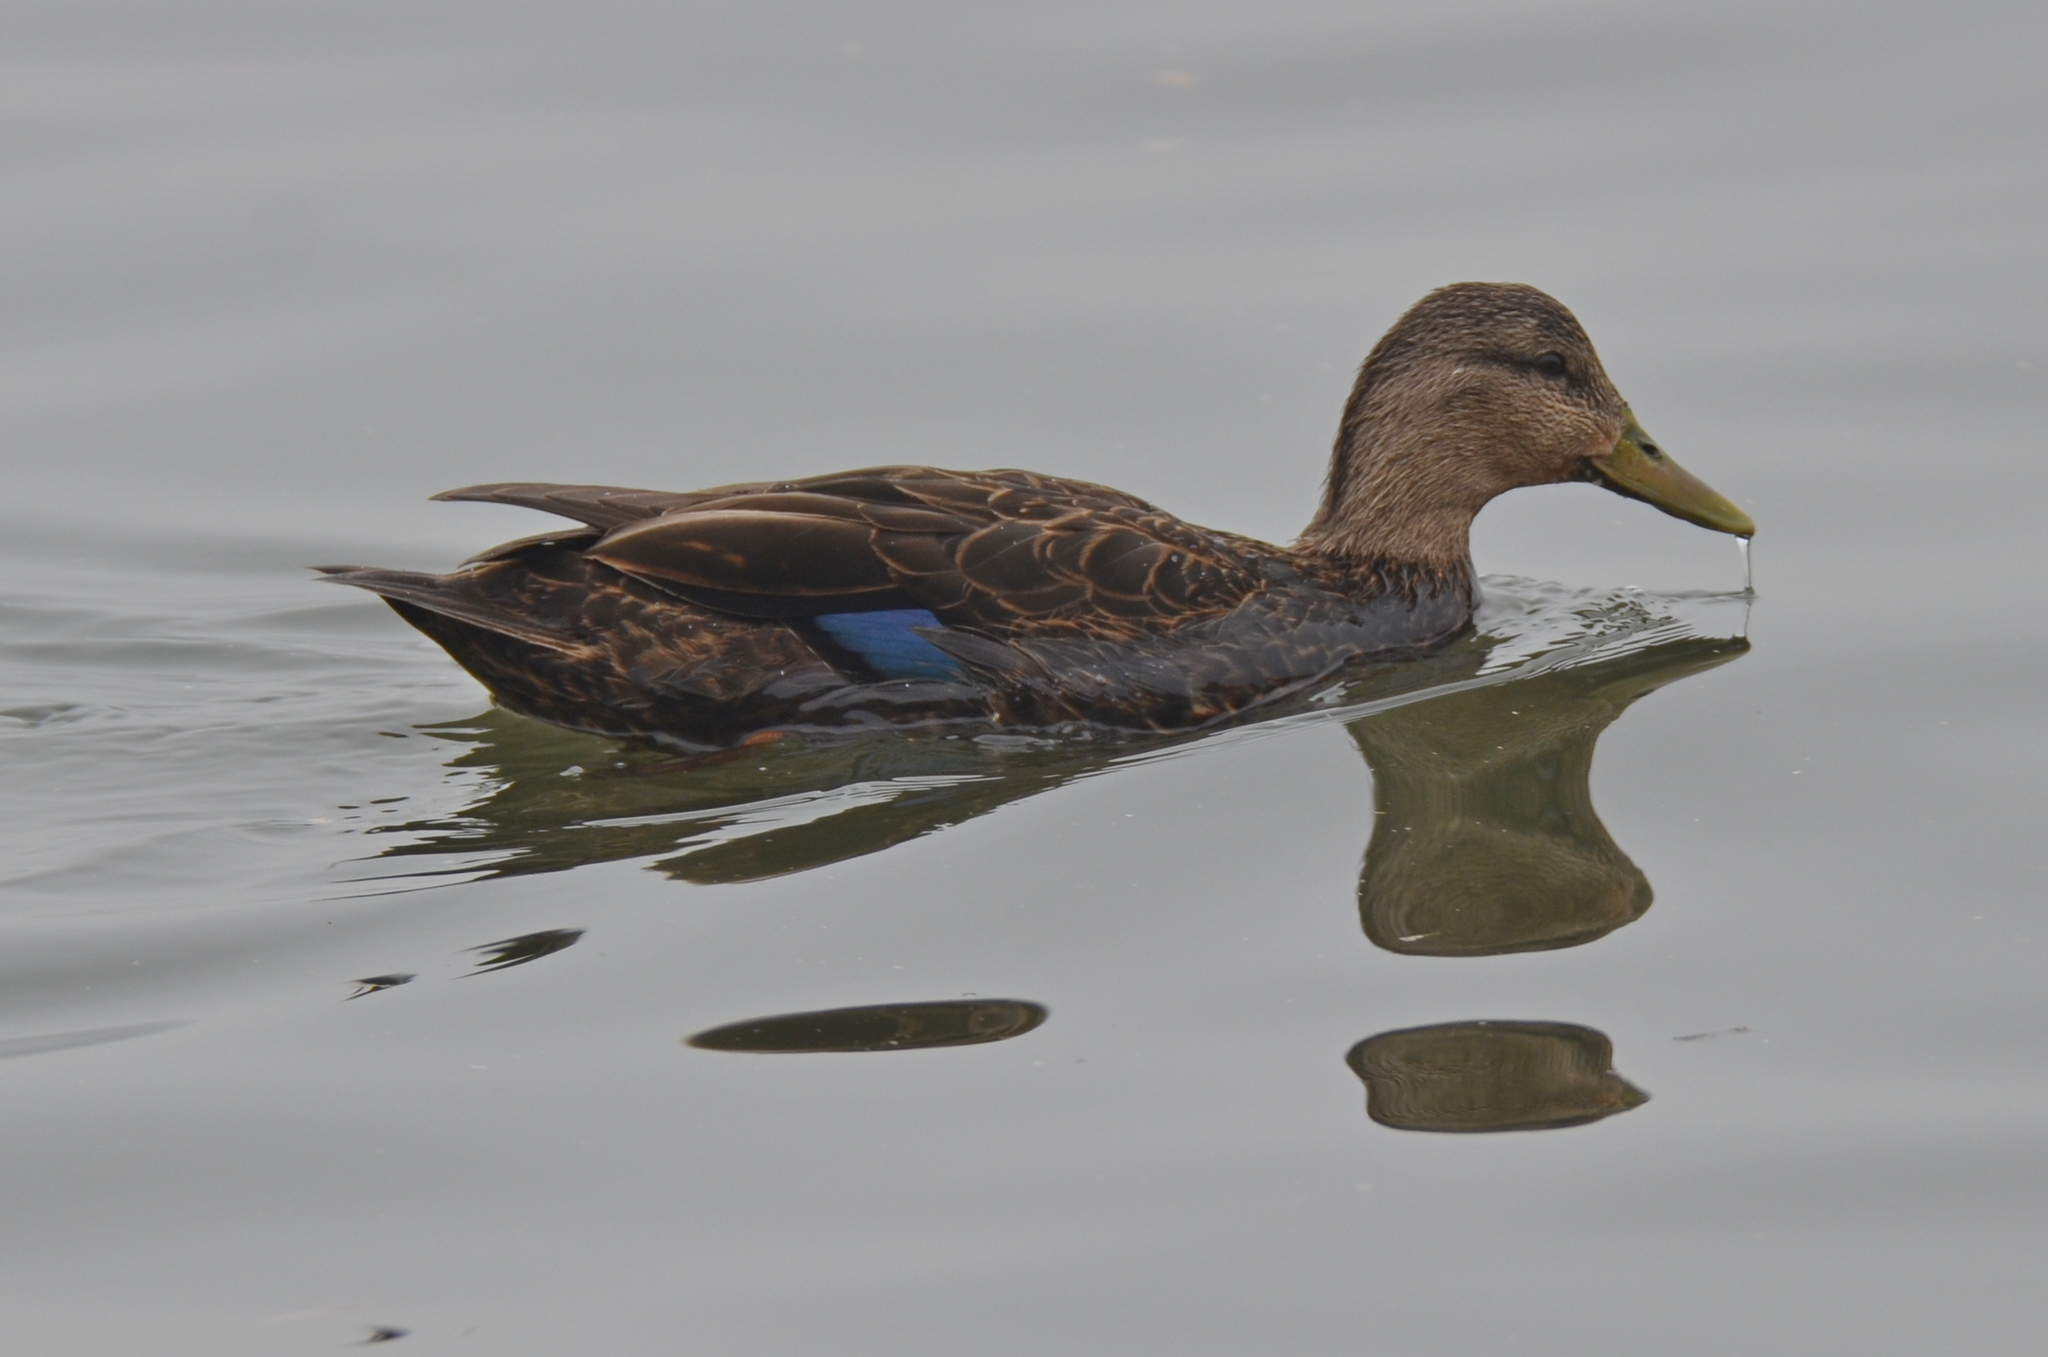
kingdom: Animalia
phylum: Chordata
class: Aves
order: Anseriformes
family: Anatidae
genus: Anas
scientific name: Anas rubripes
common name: American black duck
